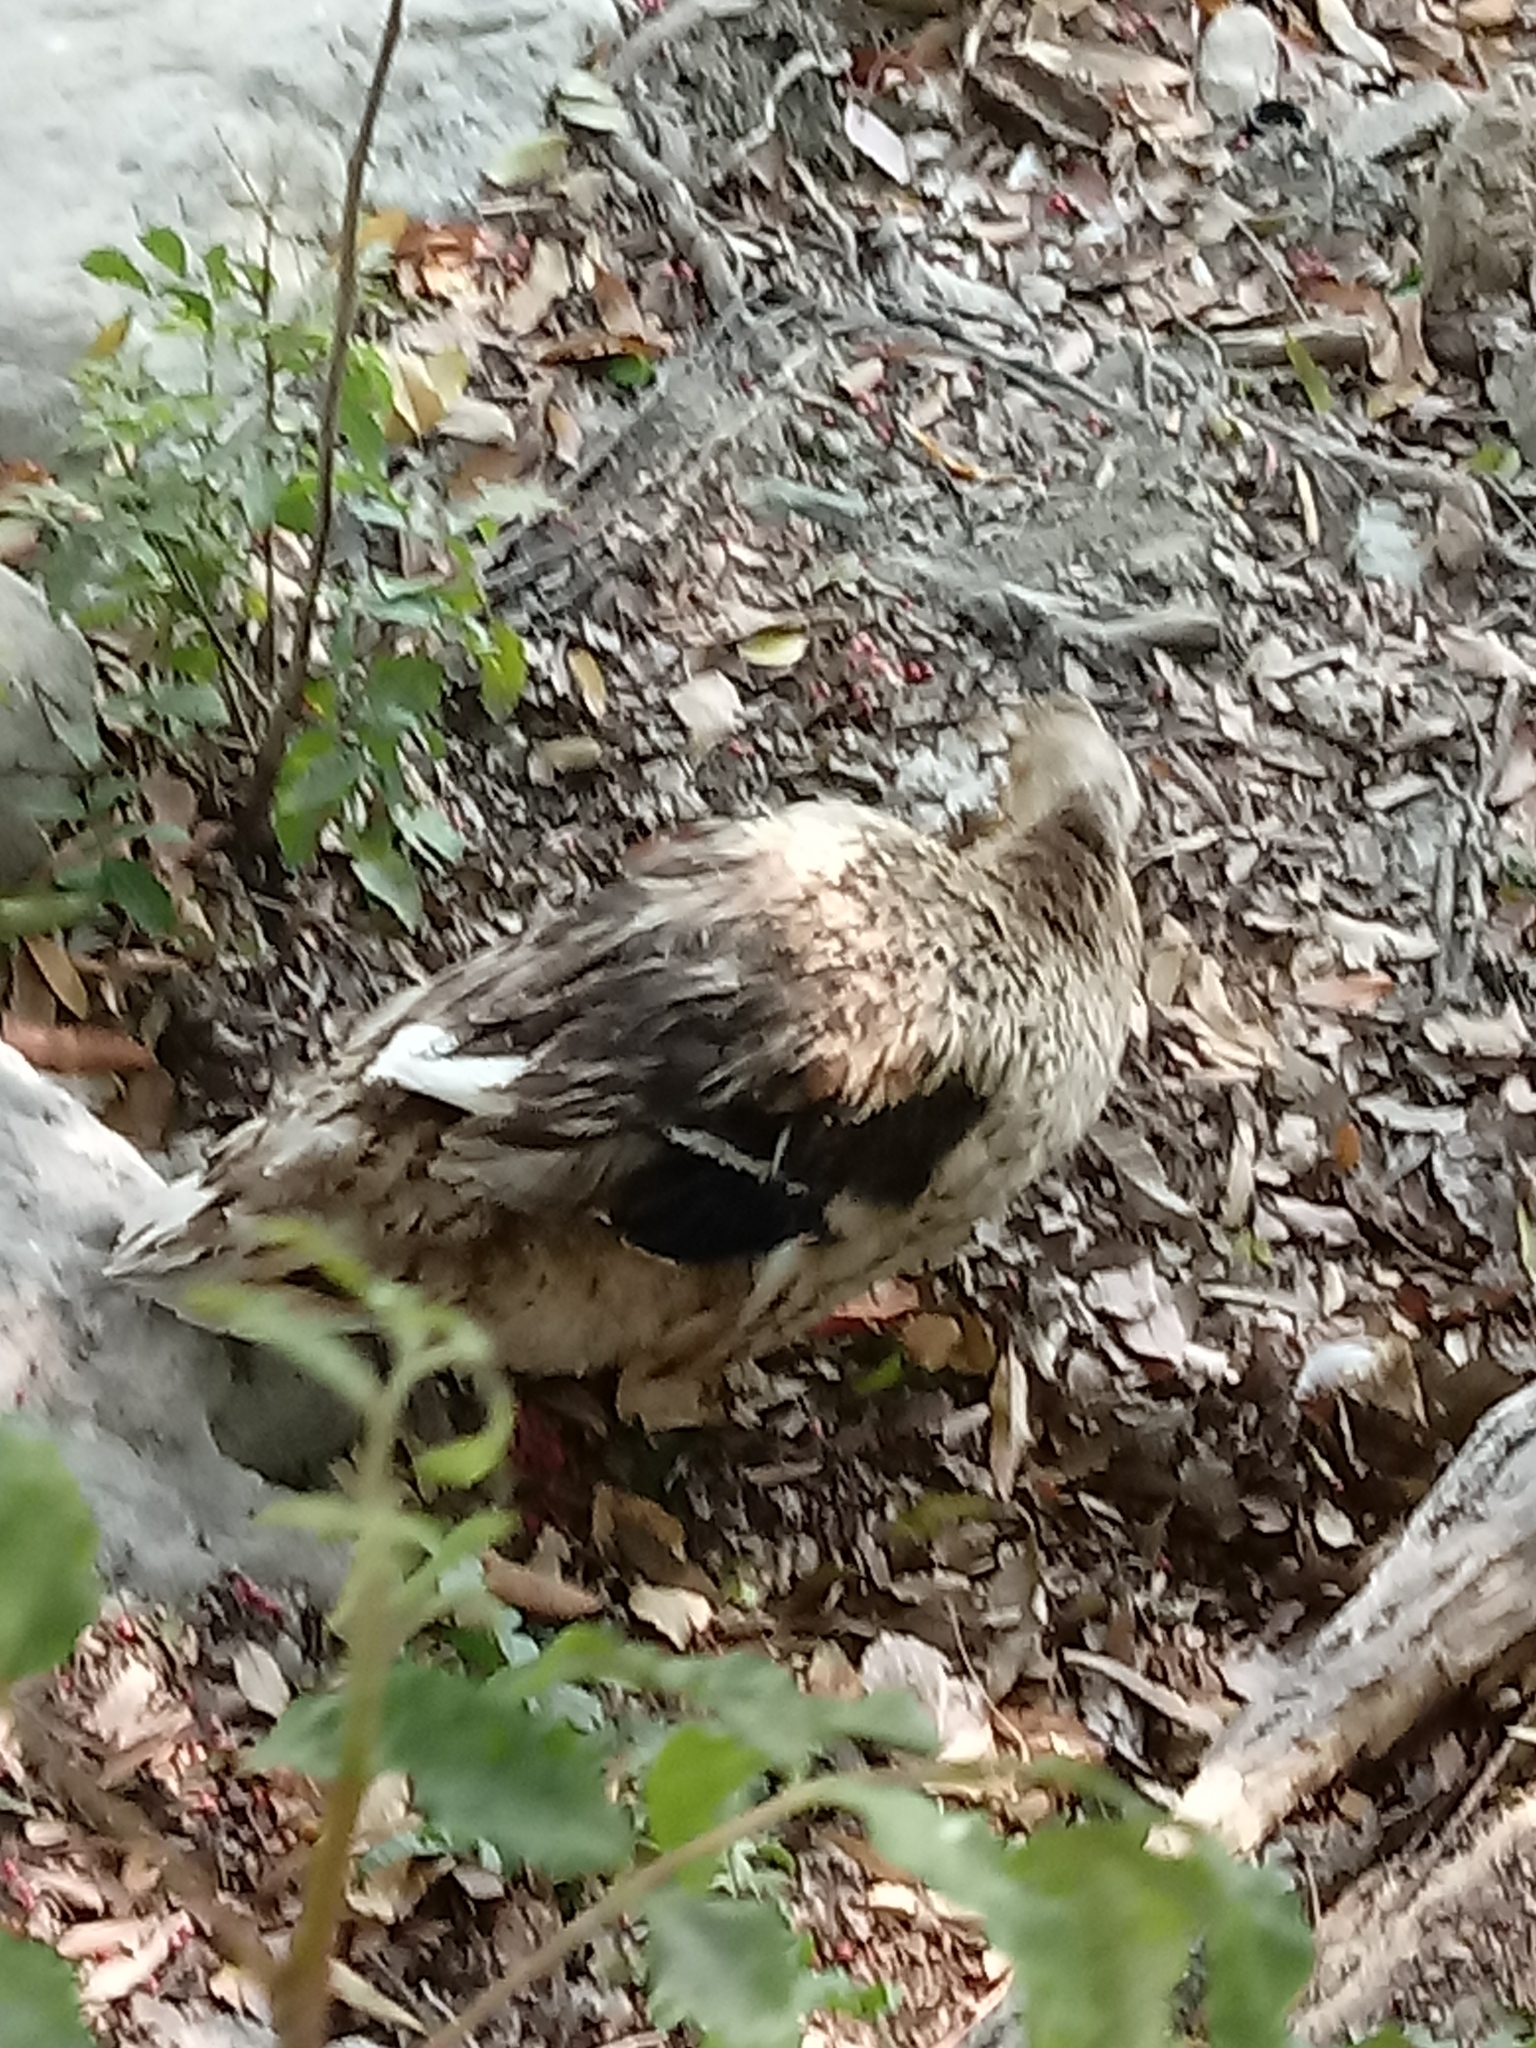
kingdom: Animalia
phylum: Chordata
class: Aves
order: Anseriformes
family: Anatidae
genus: Anas
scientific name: Anas platyrhynchos
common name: Mallard
